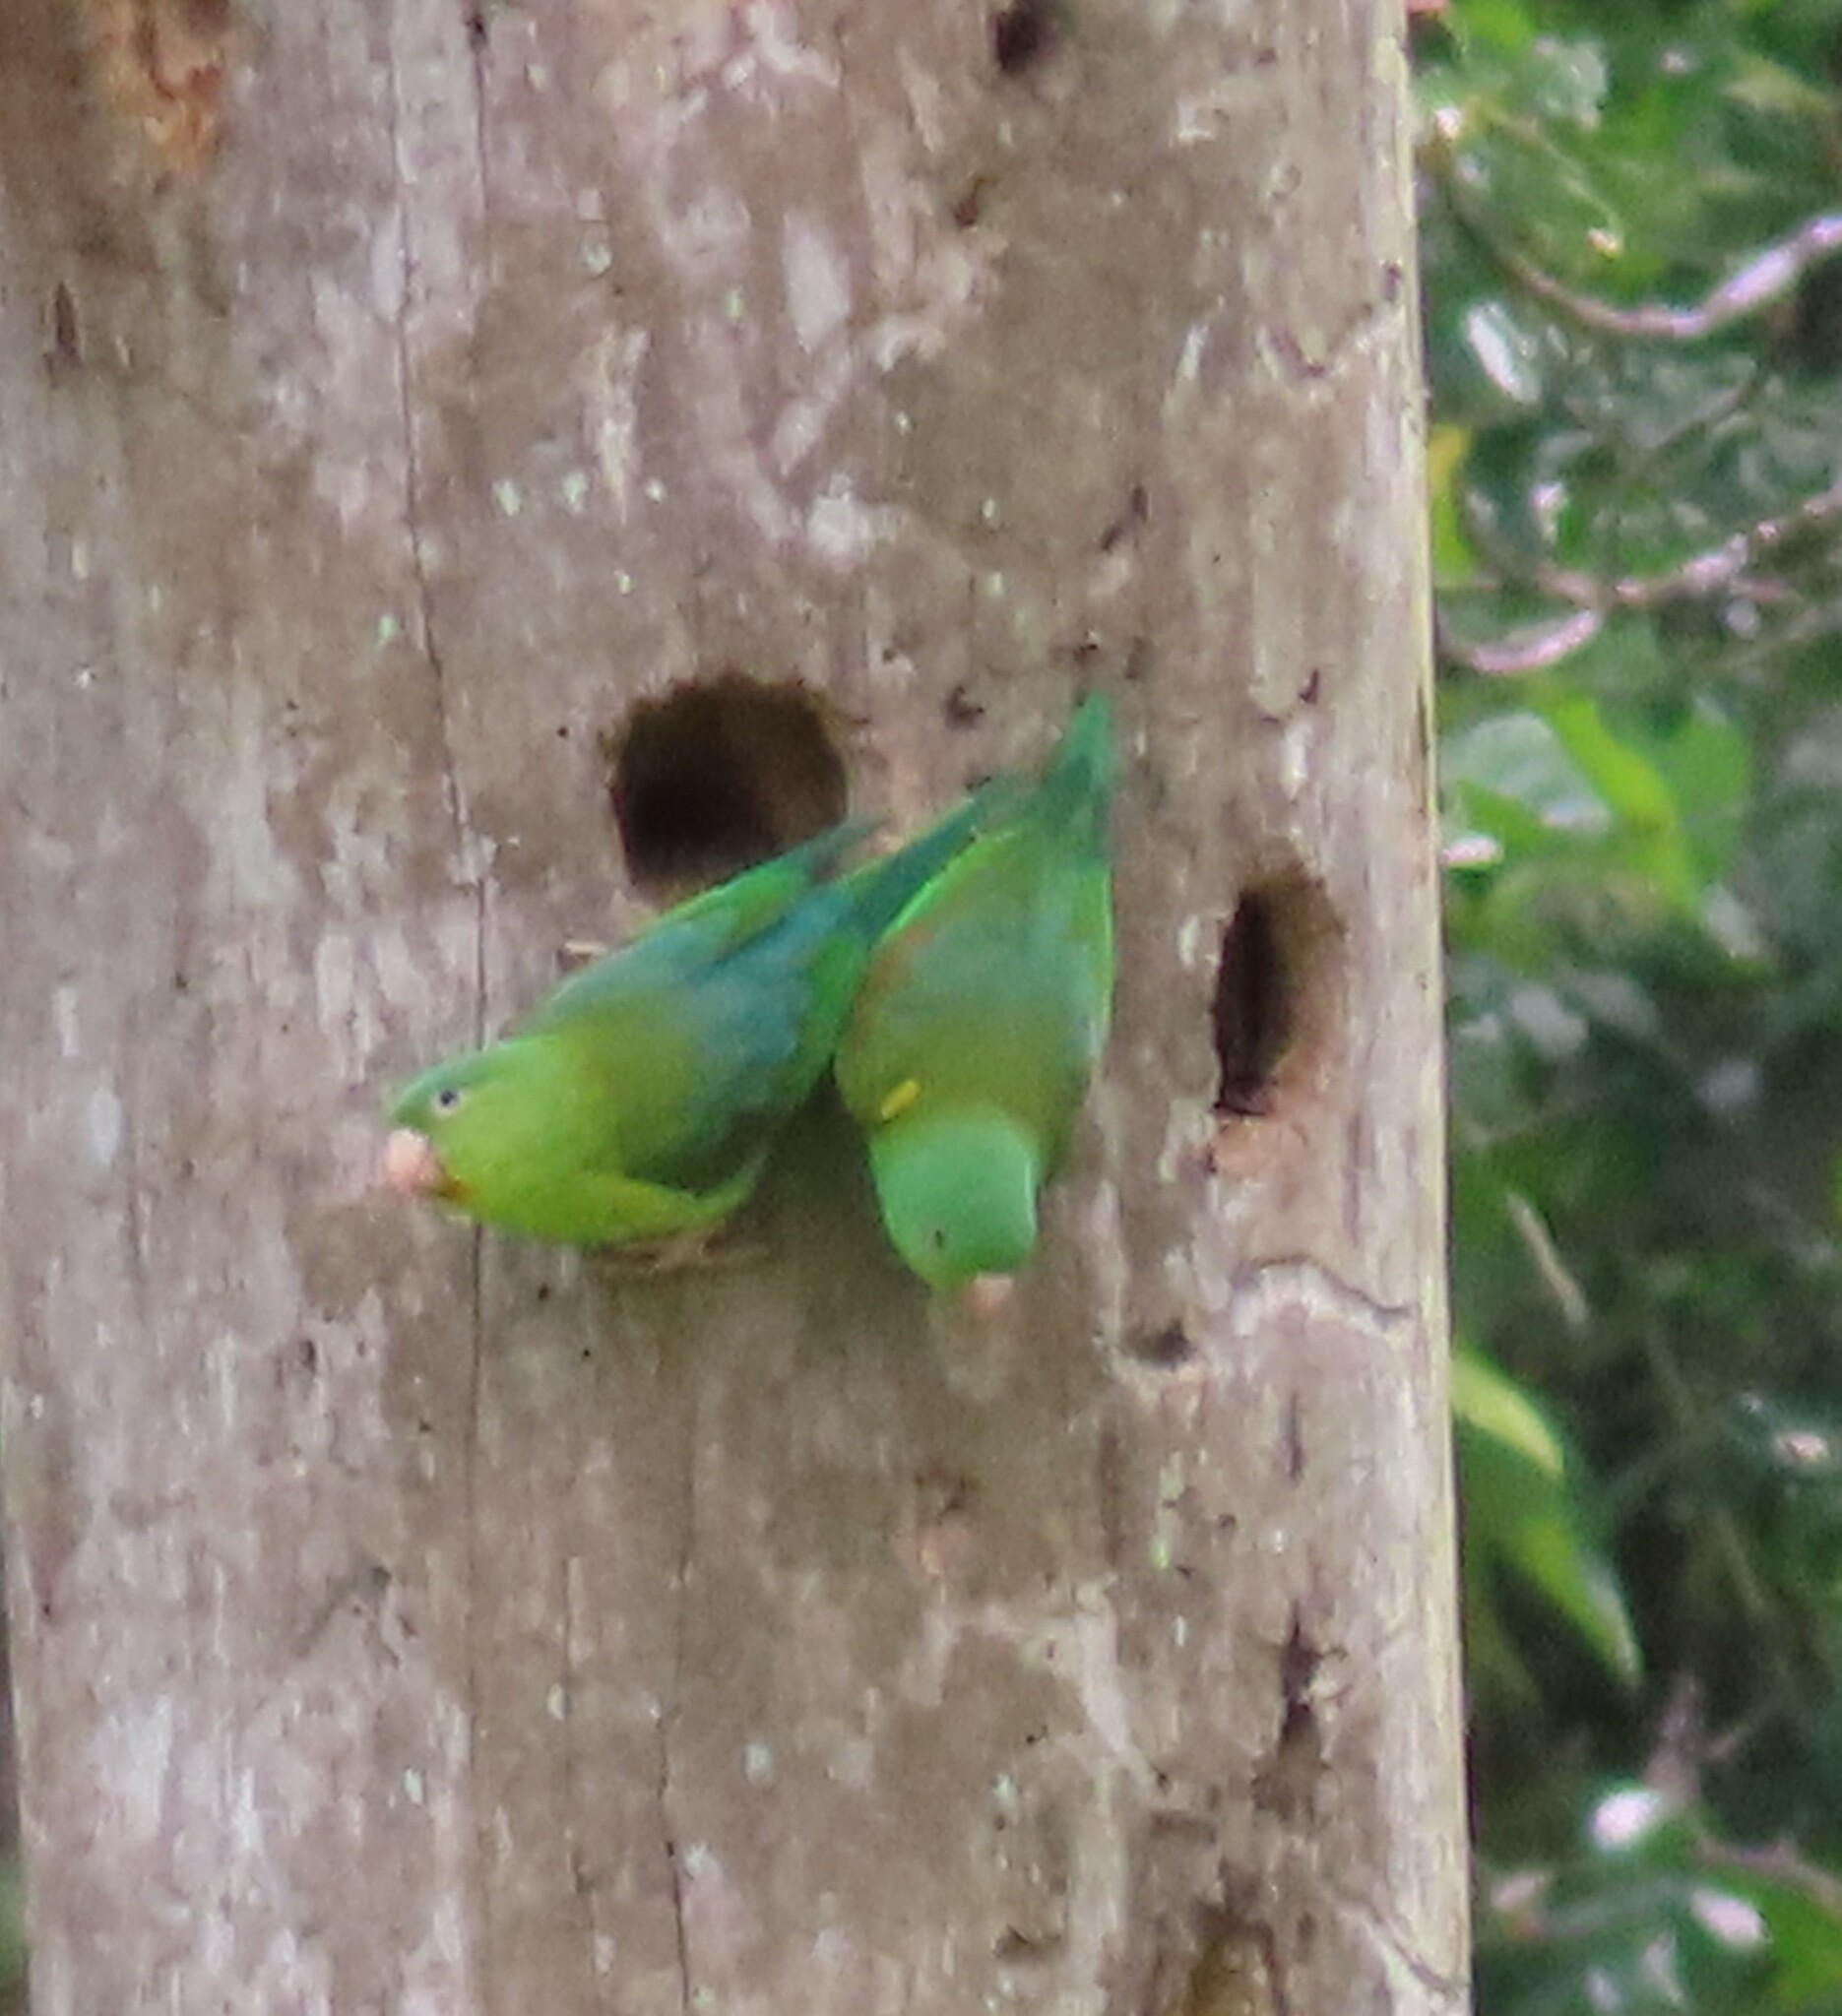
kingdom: Animalia
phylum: Chordata
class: Aves
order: Psittaciformes
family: Psittacidae
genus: Brotogeris
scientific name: Brotogeris jugularis
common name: Orange-chinned parakeet
